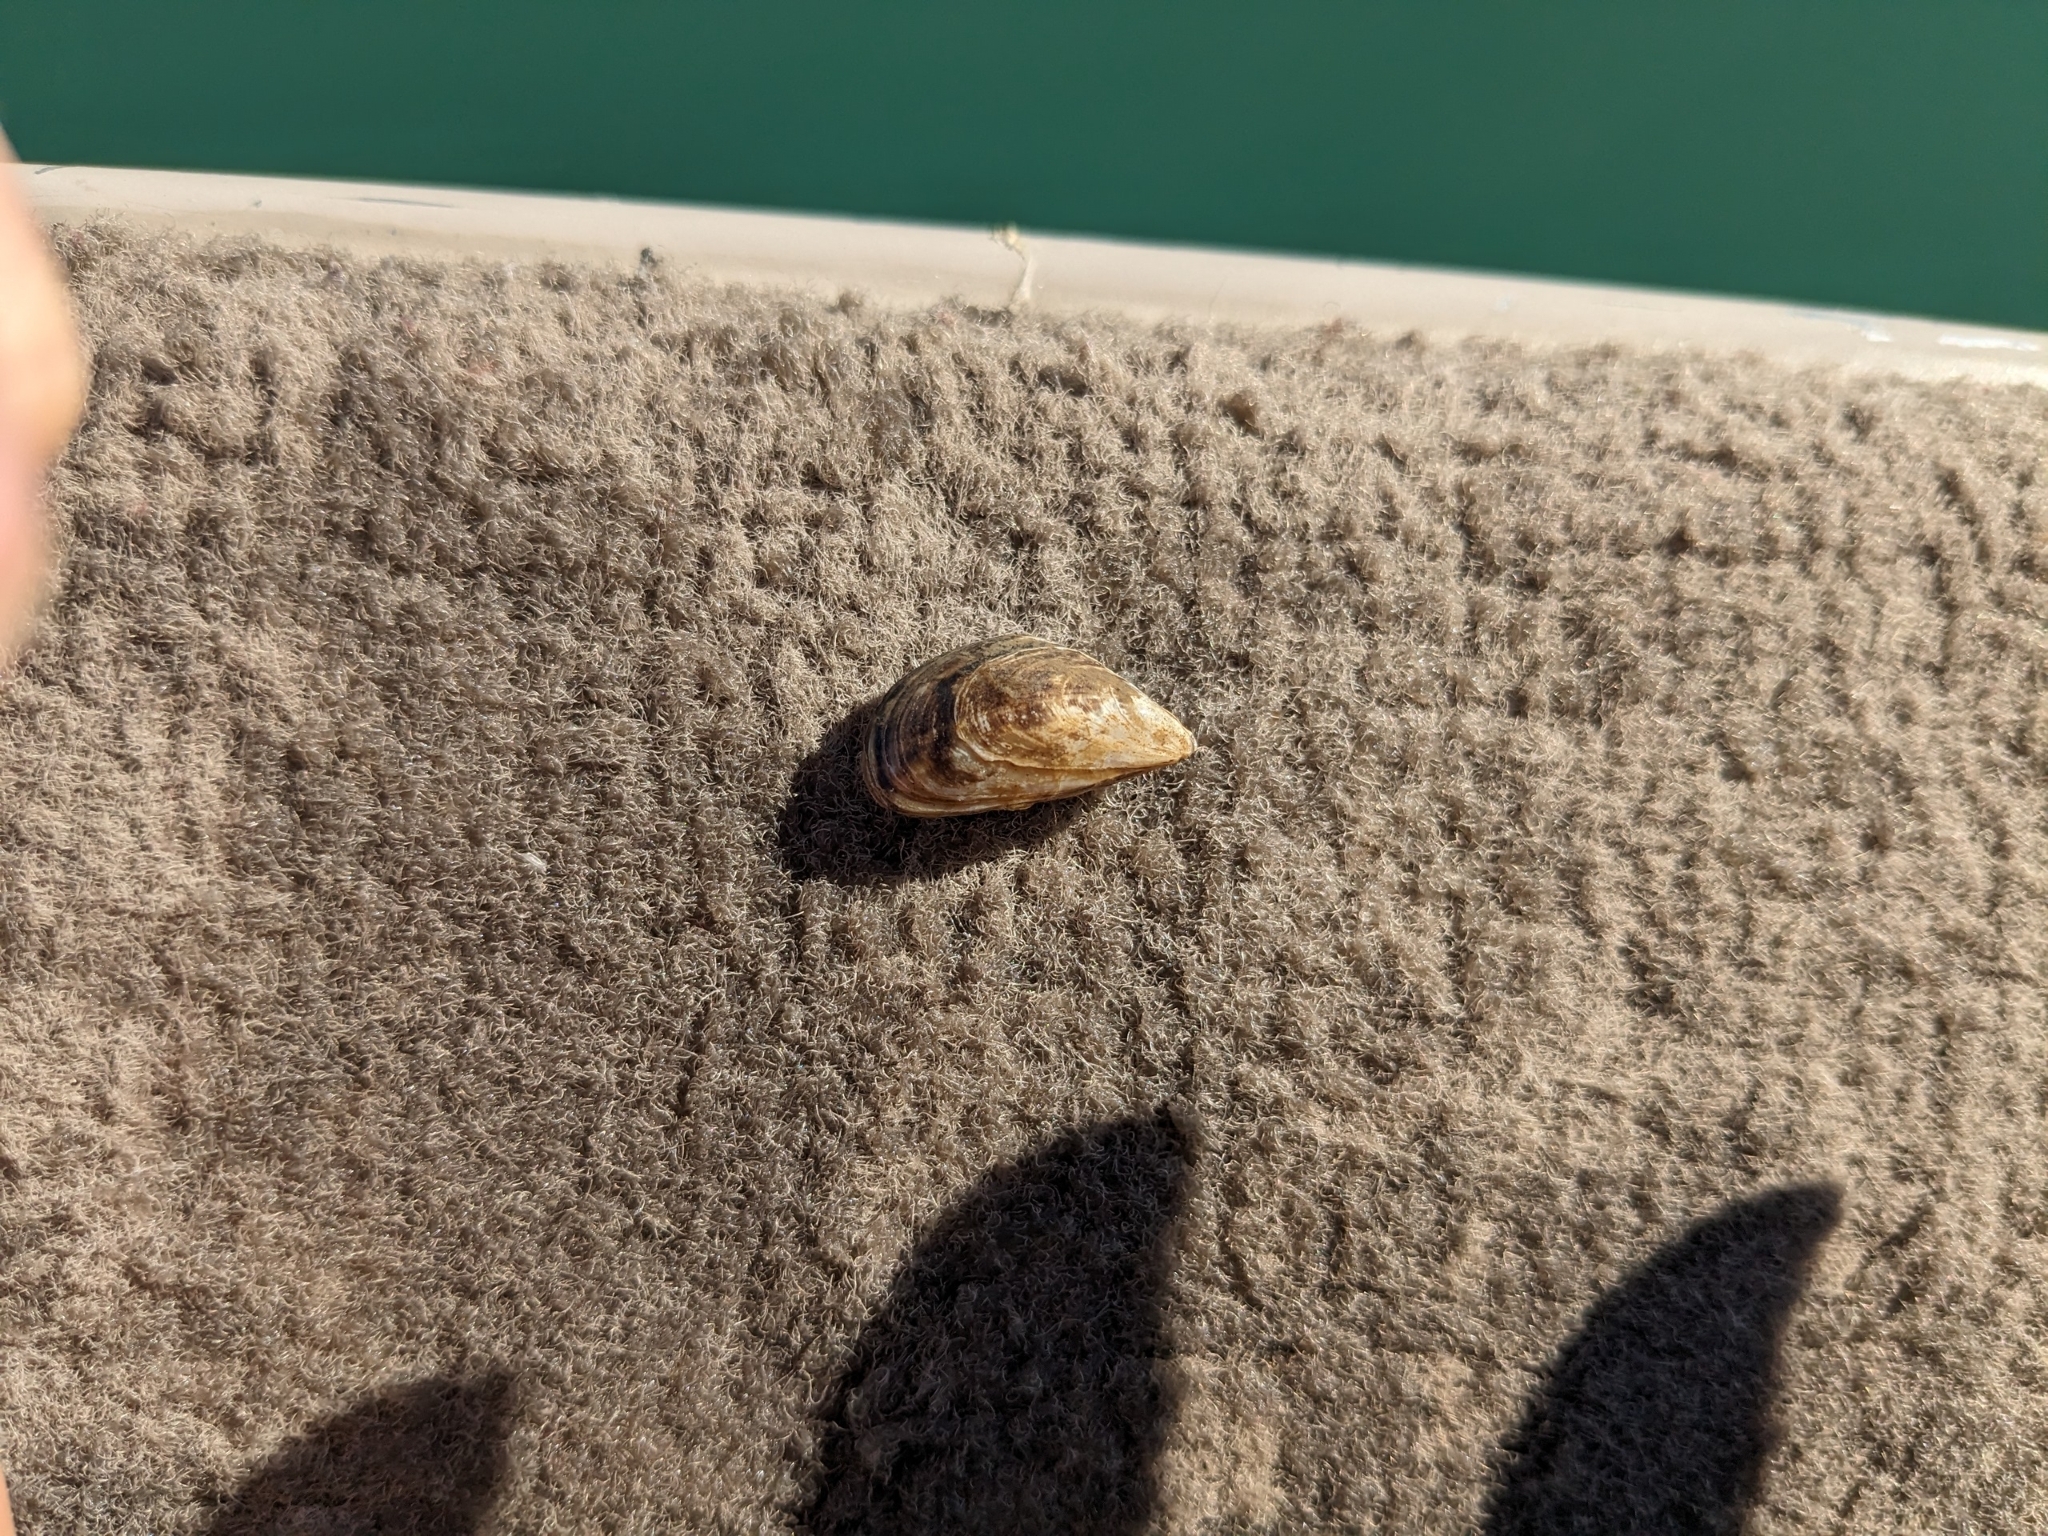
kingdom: Animalia
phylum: Mollusca
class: Bivalvia
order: Myida
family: Dreissenidae
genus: Dreissena
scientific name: Dreissena bugensis
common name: Quagga mussel
